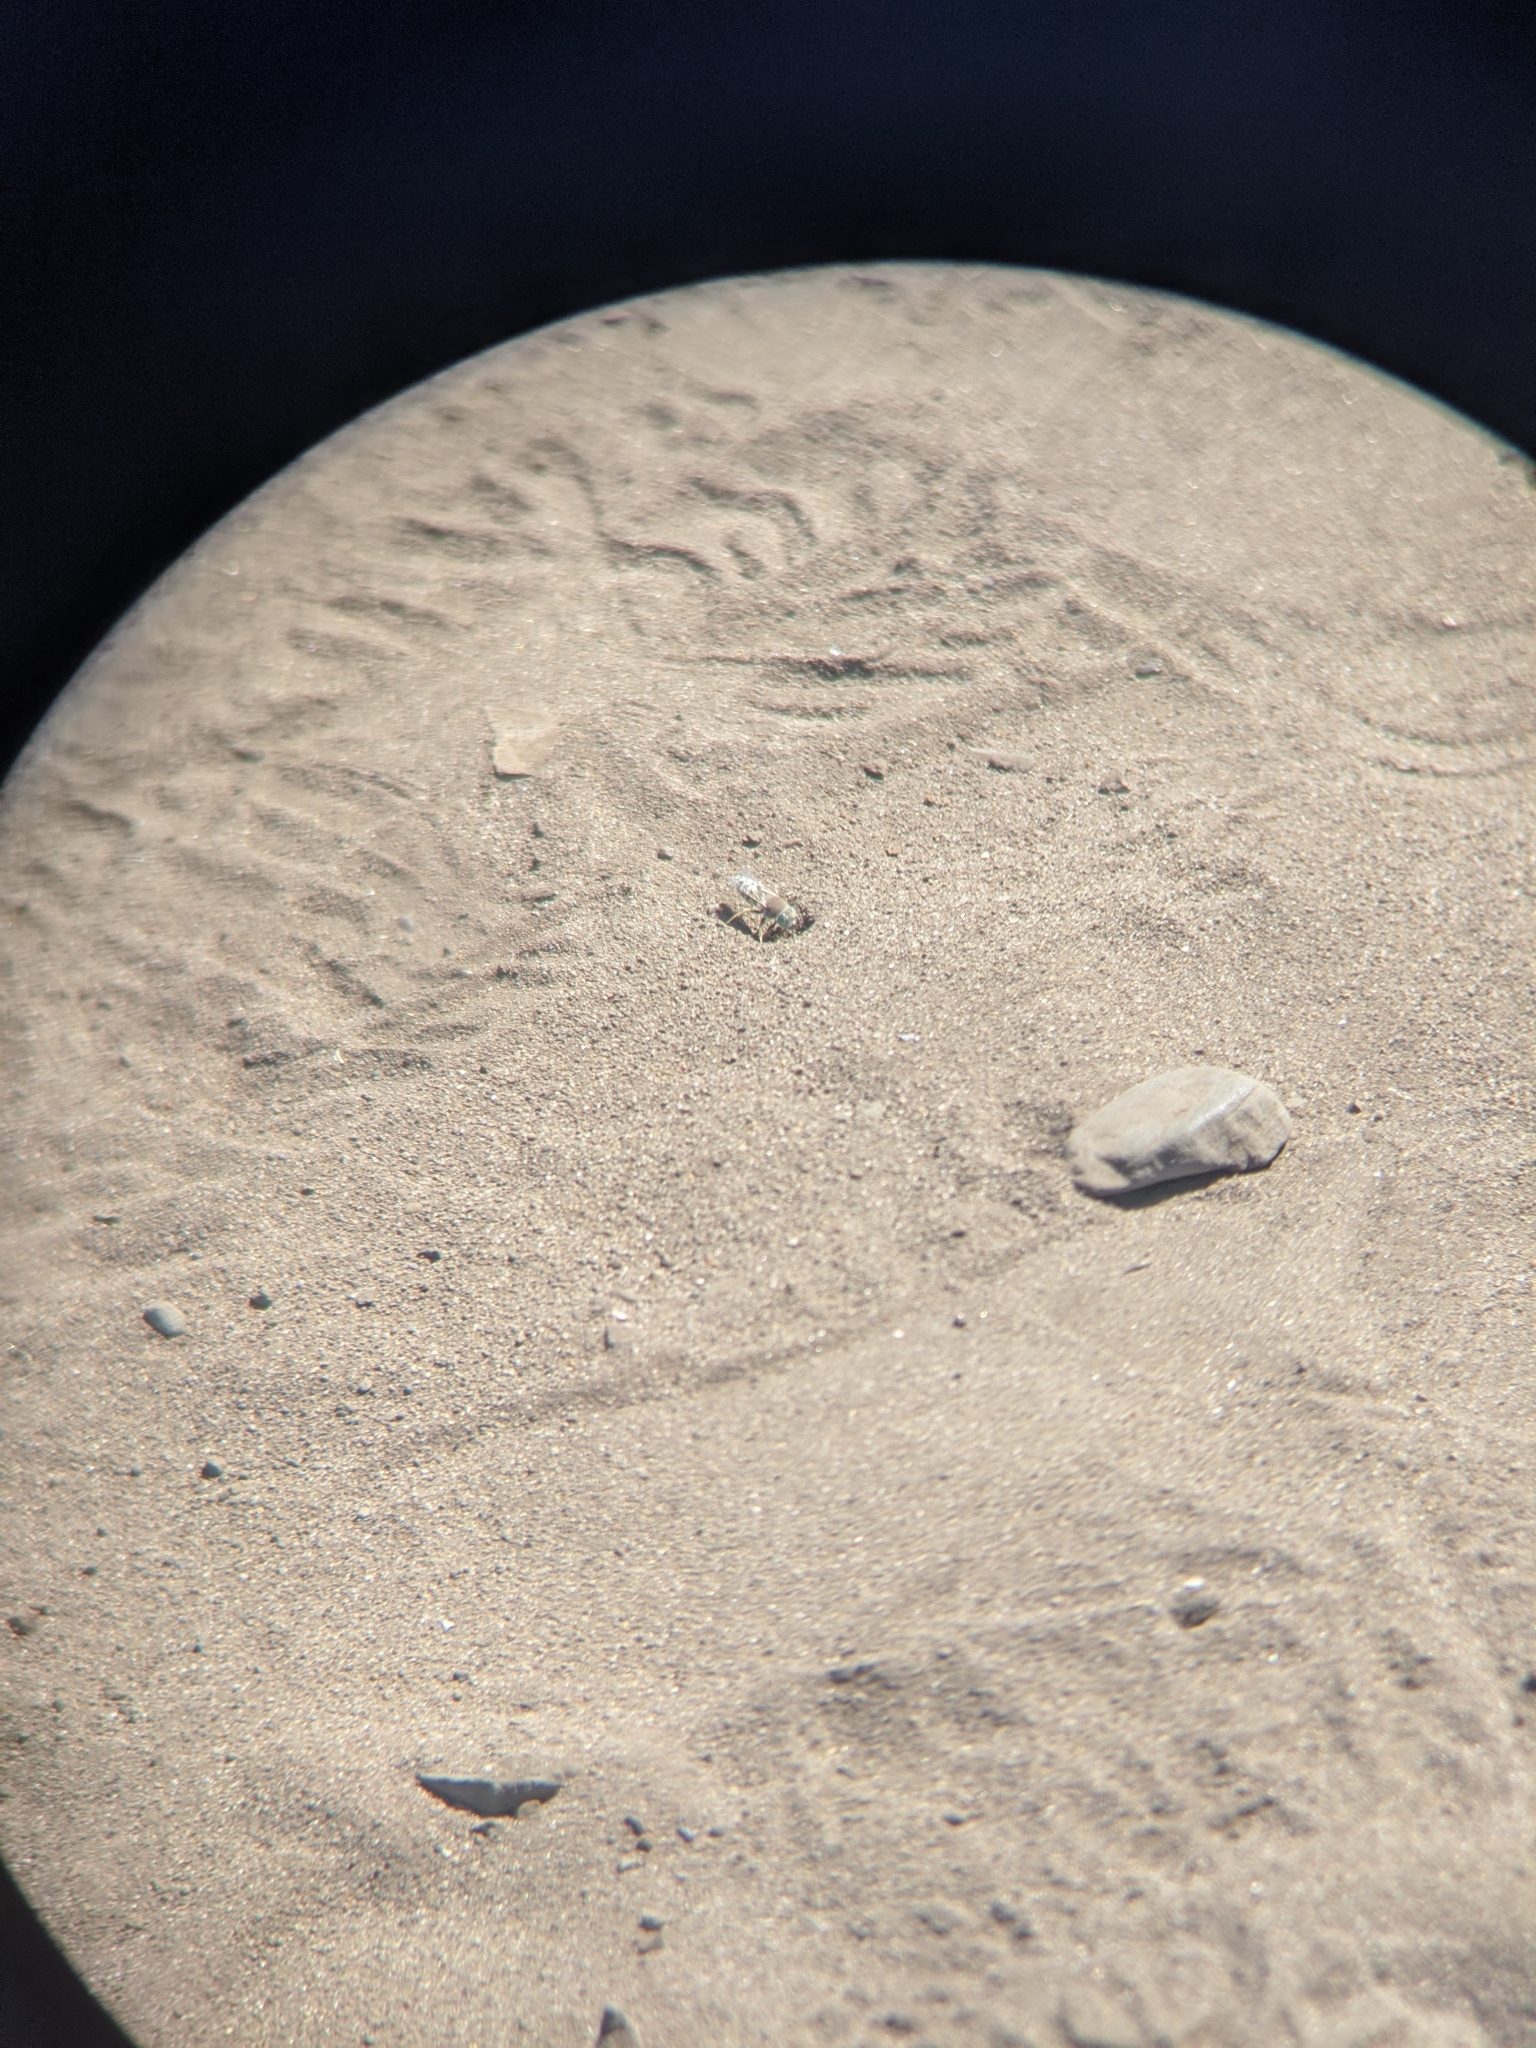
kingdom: Animalia
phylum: Arthropoda
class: Insecta
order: Hymenoptera
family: Crabronidae
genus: Bembix
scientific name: Bembix
